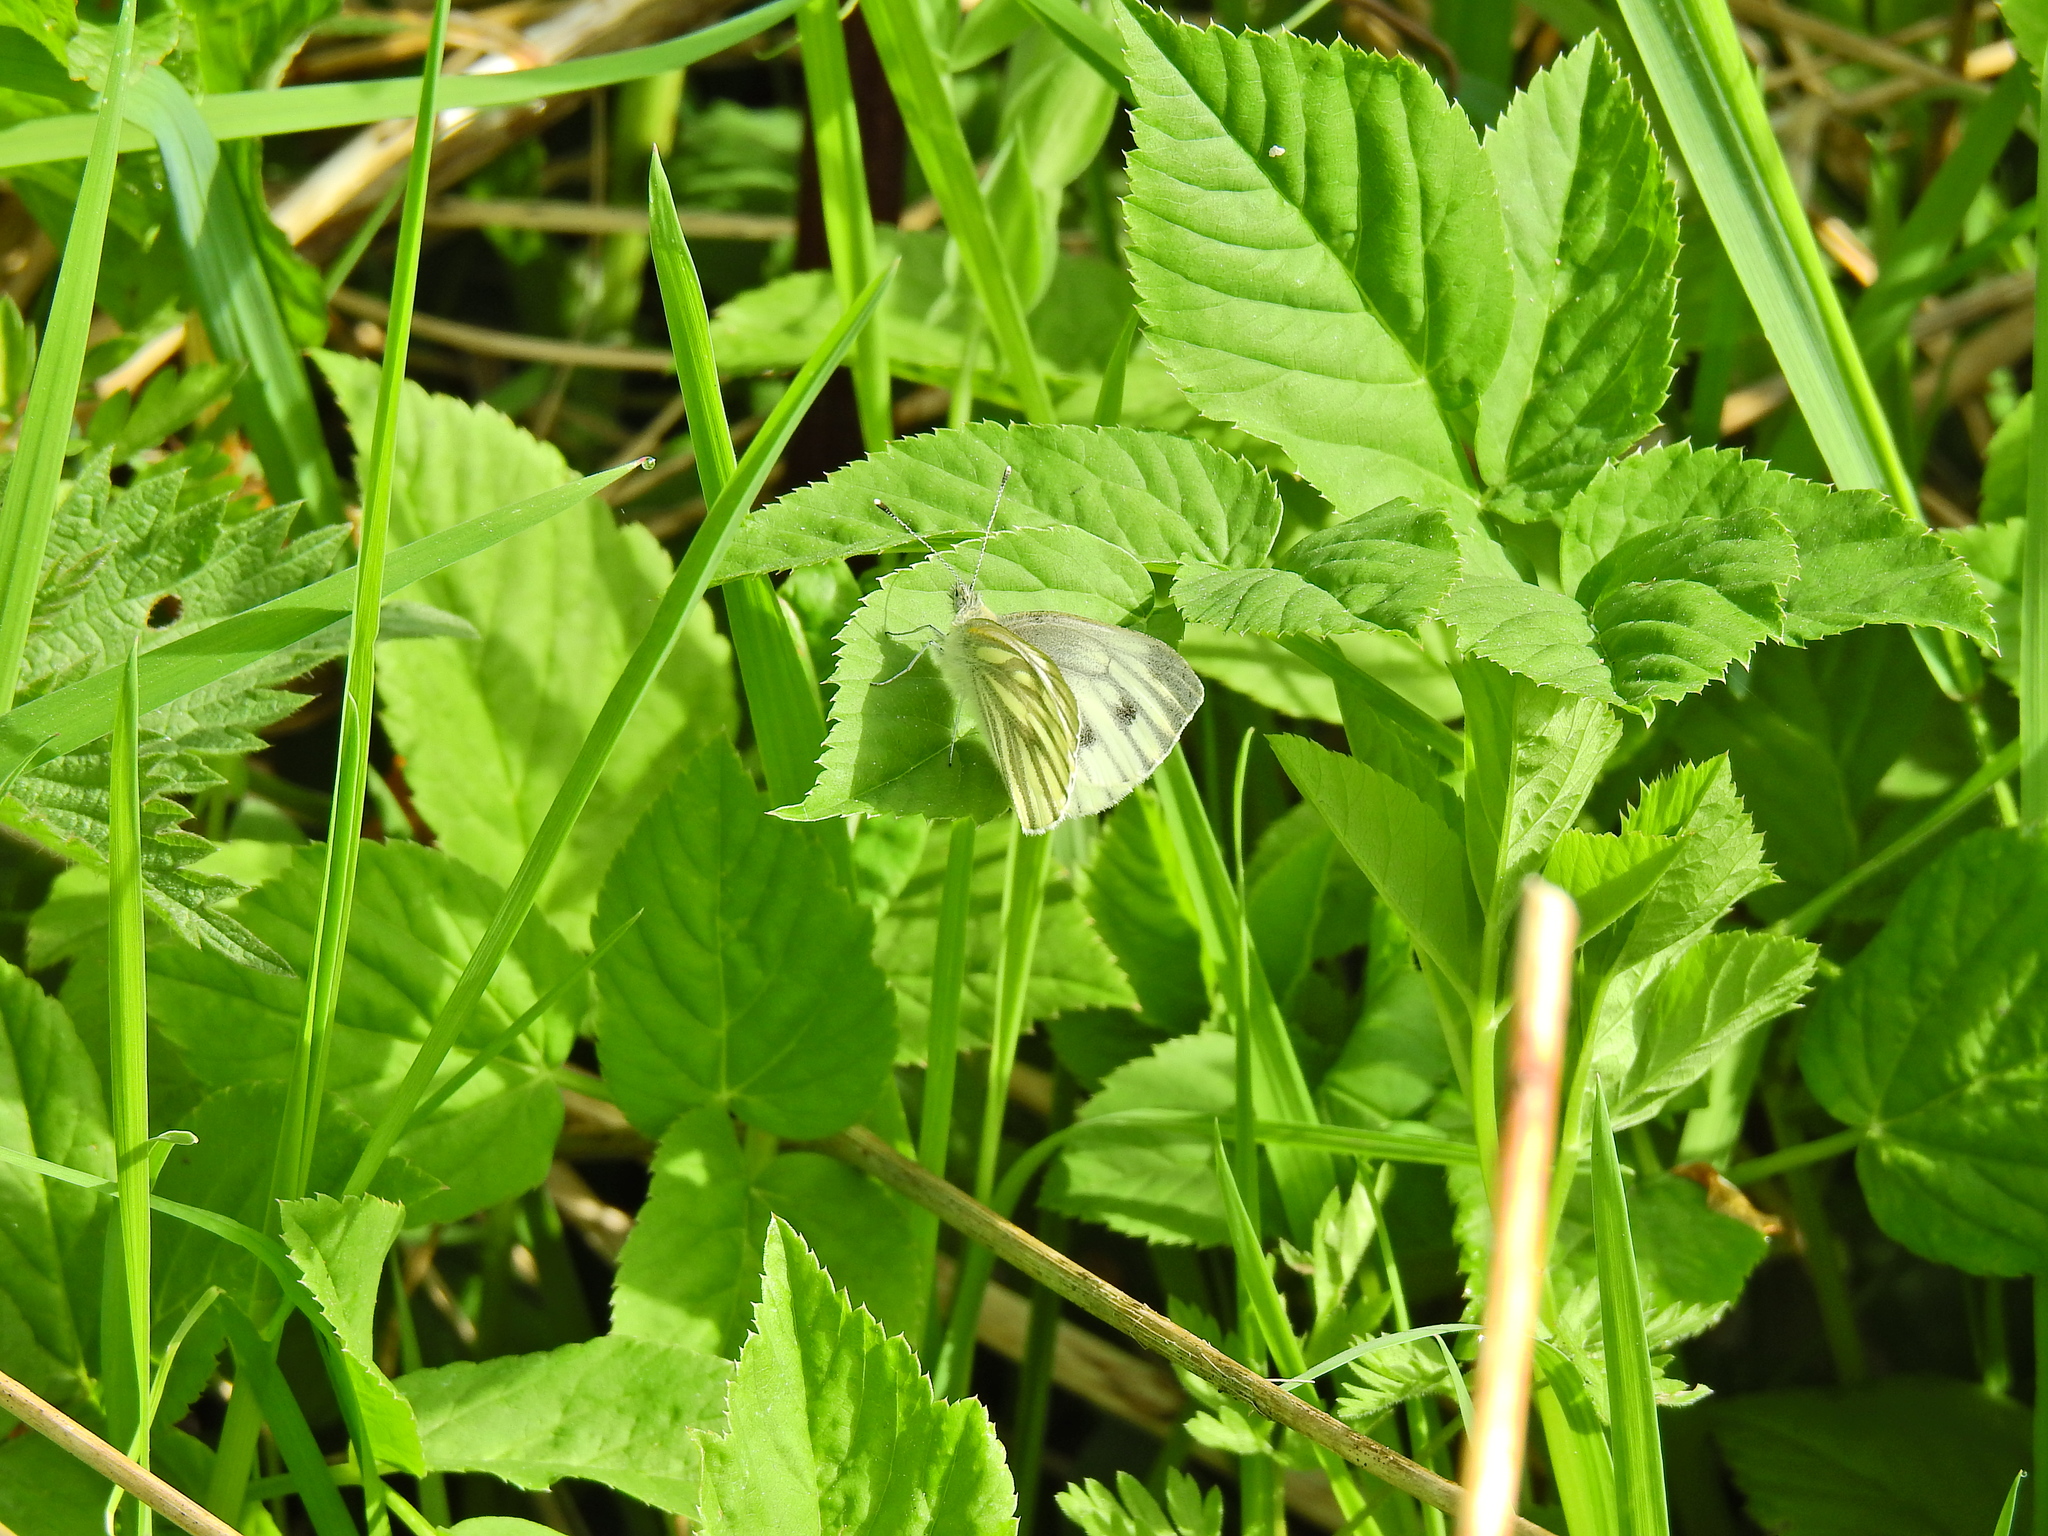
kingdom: Animalia
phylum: Arthropoda
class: Insecta
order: Lepidoptera
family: Pieridae
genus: Pieris
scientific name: Pieris napi
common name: Green-veined white
